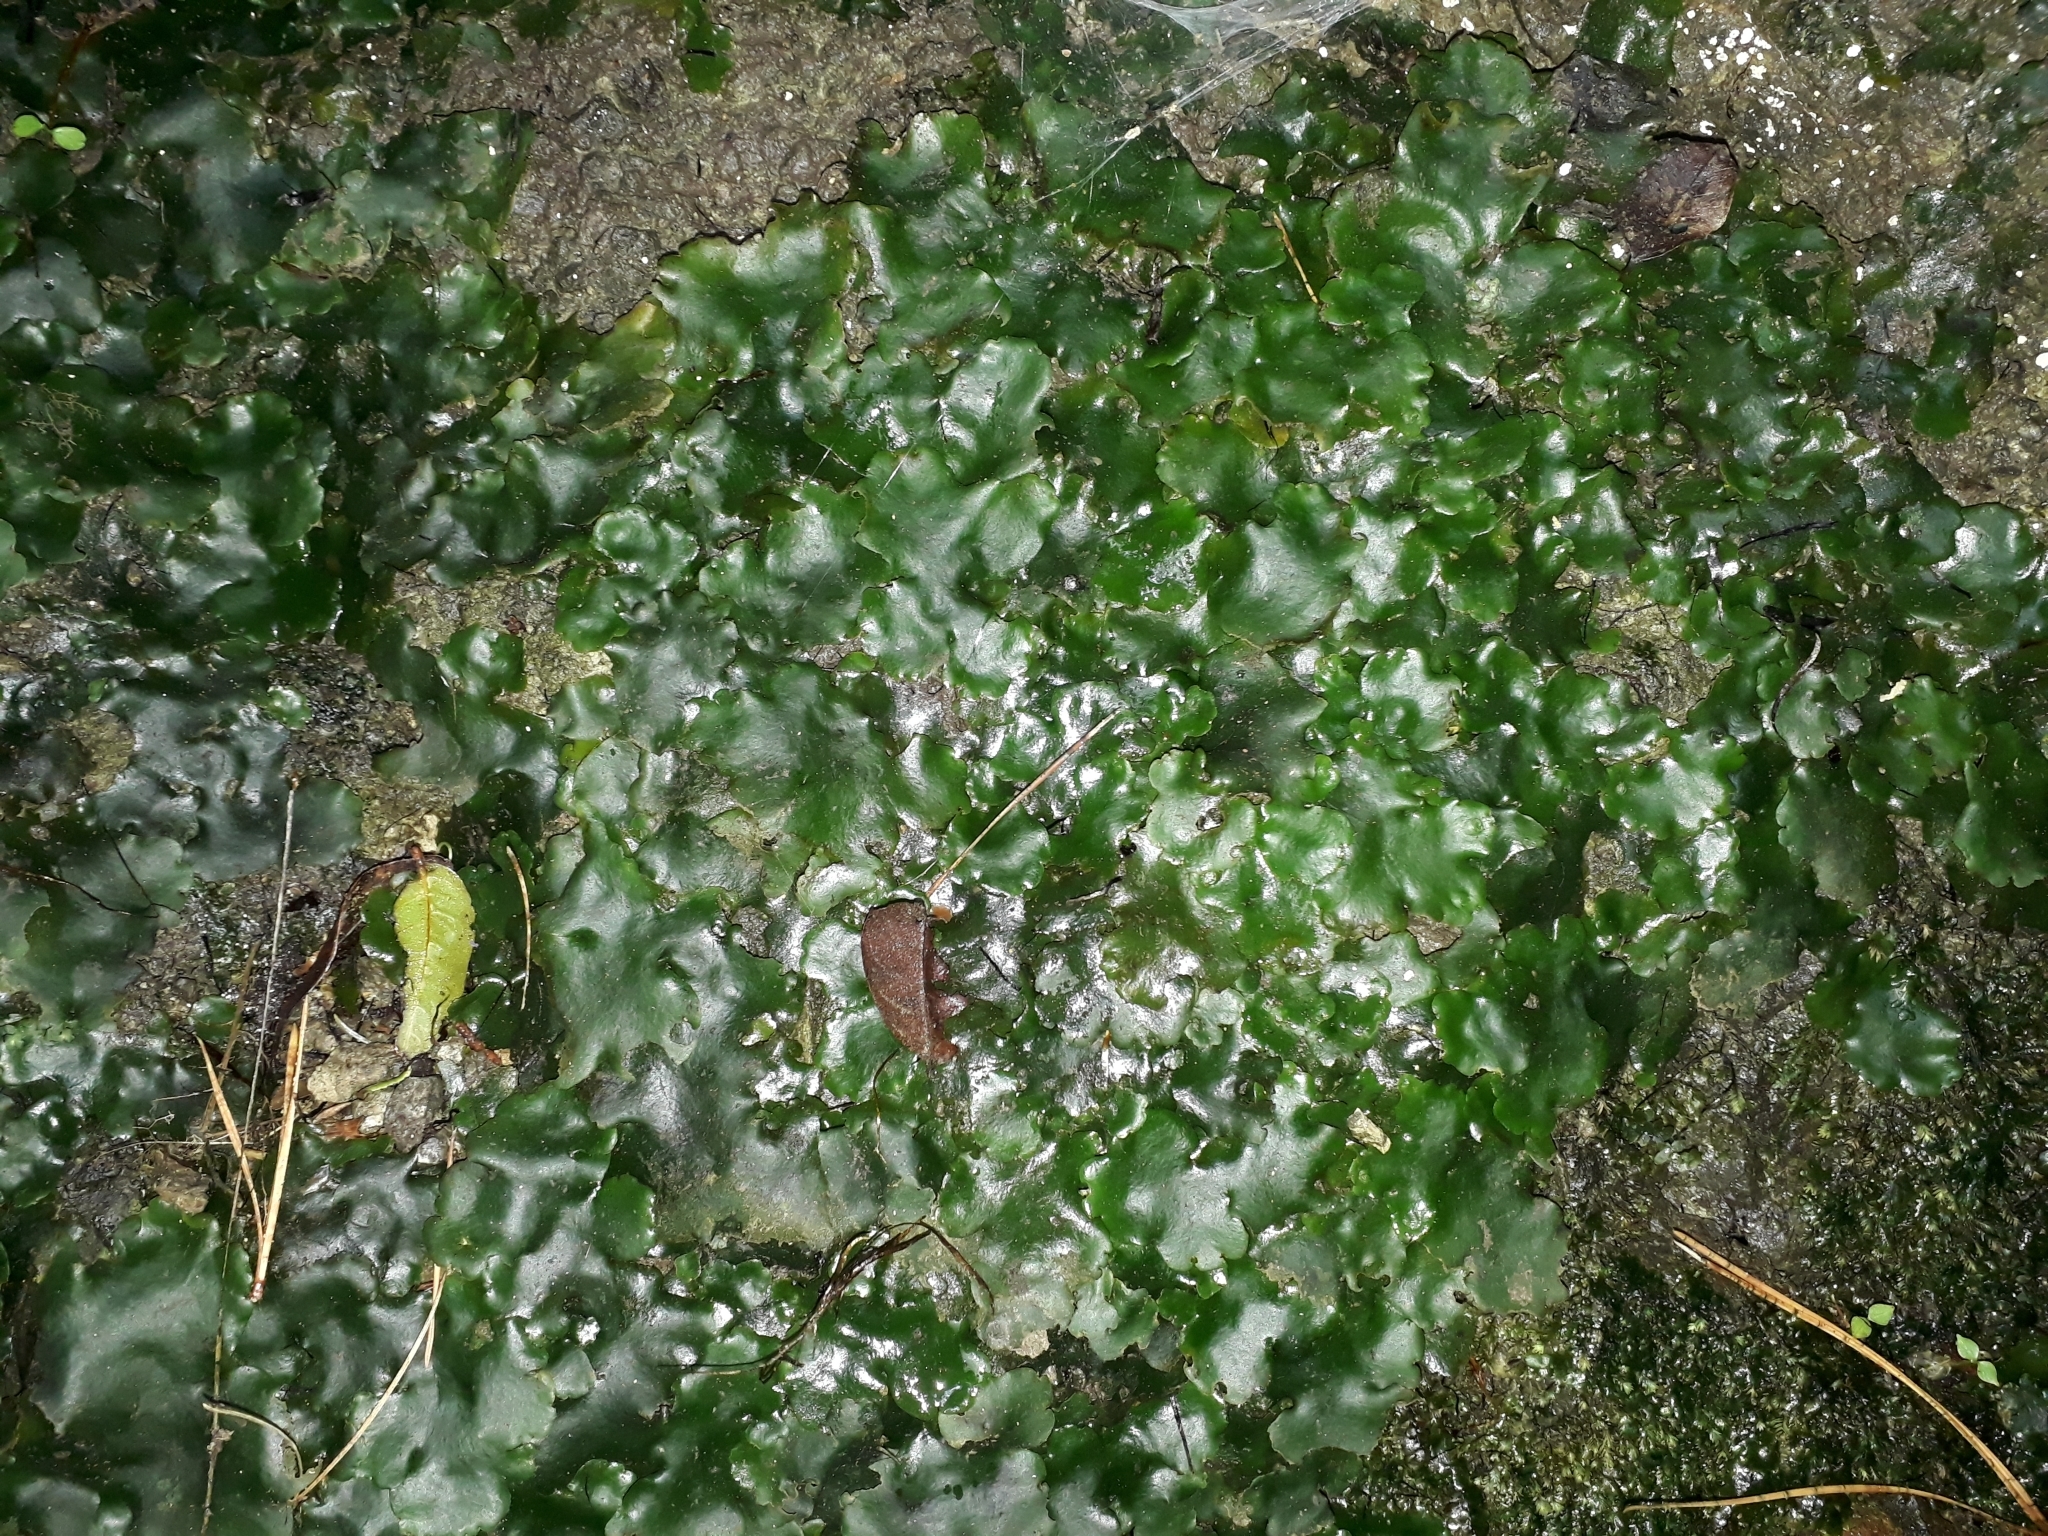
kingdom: Plantae
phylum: Marchantiophyta
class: Marchantiopsida
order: Marchantiales
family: Monocleaceae
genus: Monoclea
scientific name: Monoclea forsteri
